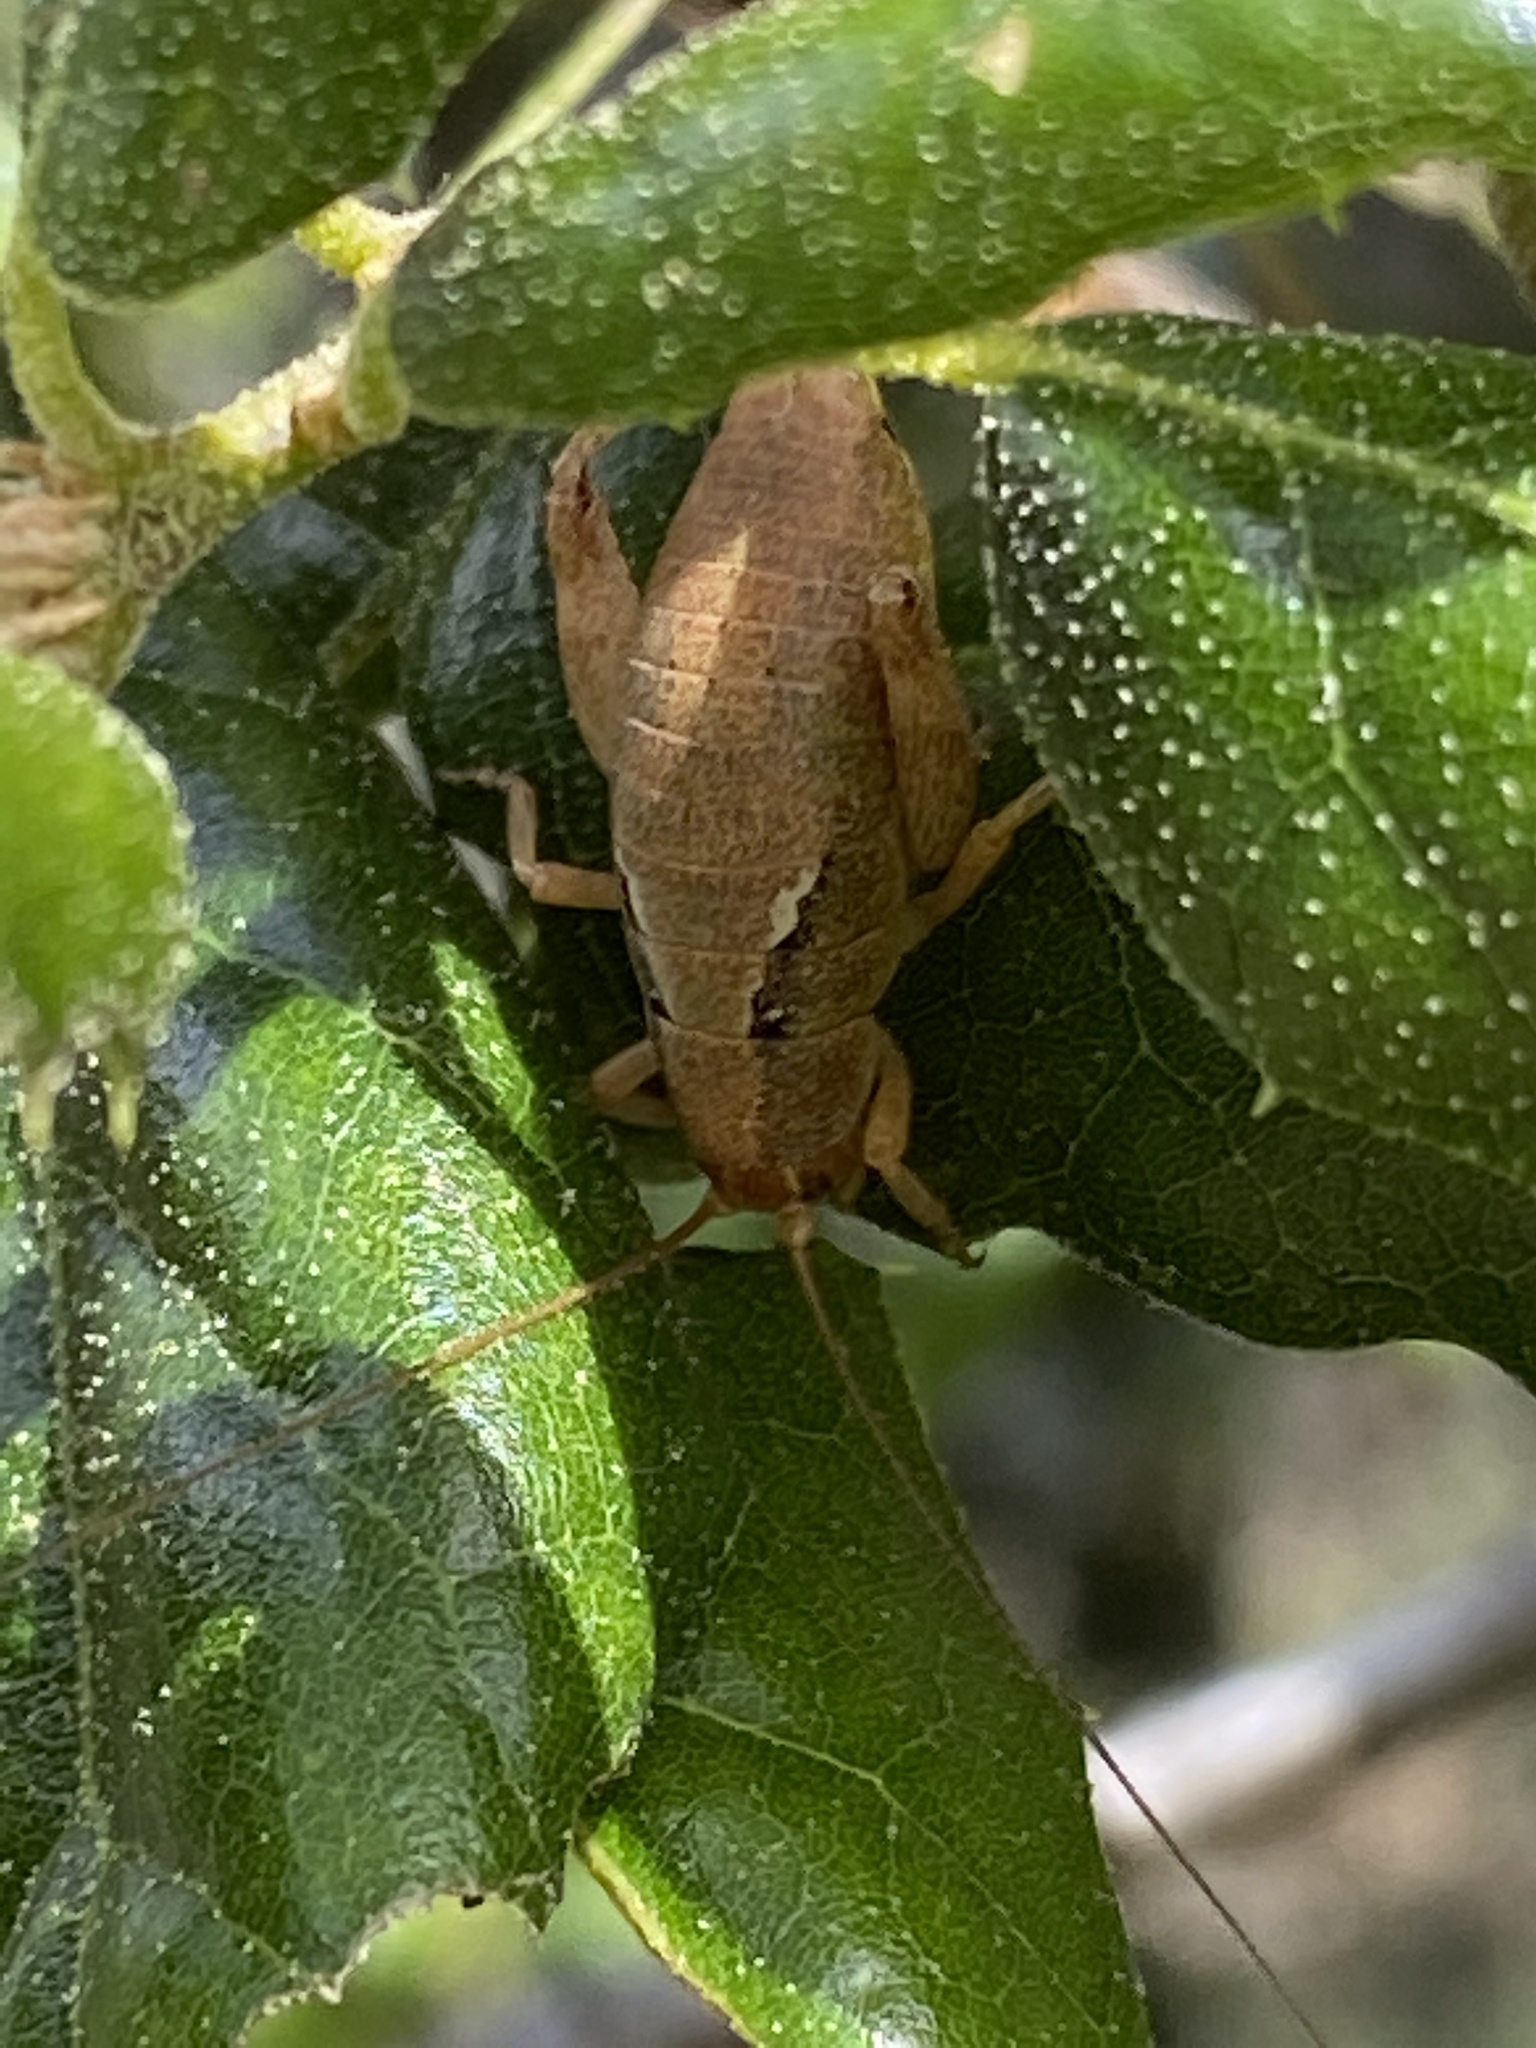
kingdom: Animalia
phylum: Arthropoda
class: Insecta
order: Orthoptera
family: Rhaphidophoridae
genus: Gammarotettix
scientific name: Gammarotettix bilobatus
